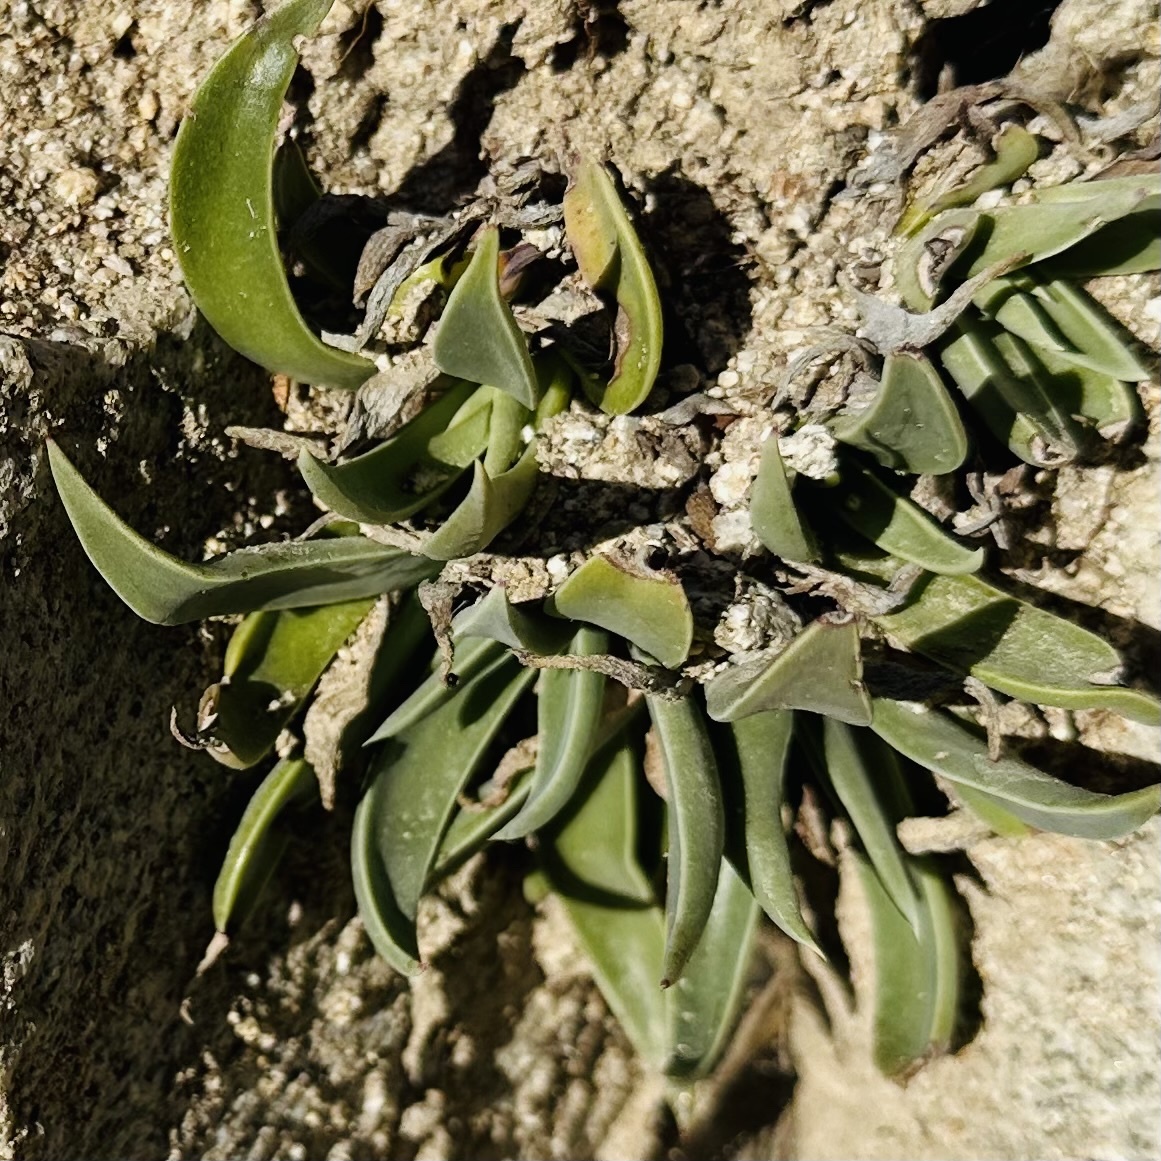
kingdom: Plantae
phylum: Tracheophyta
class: Magnoliopsida
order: Saxifragales
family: Crassulaceae
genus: Dudleya
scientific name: Dudleya lanceolata
